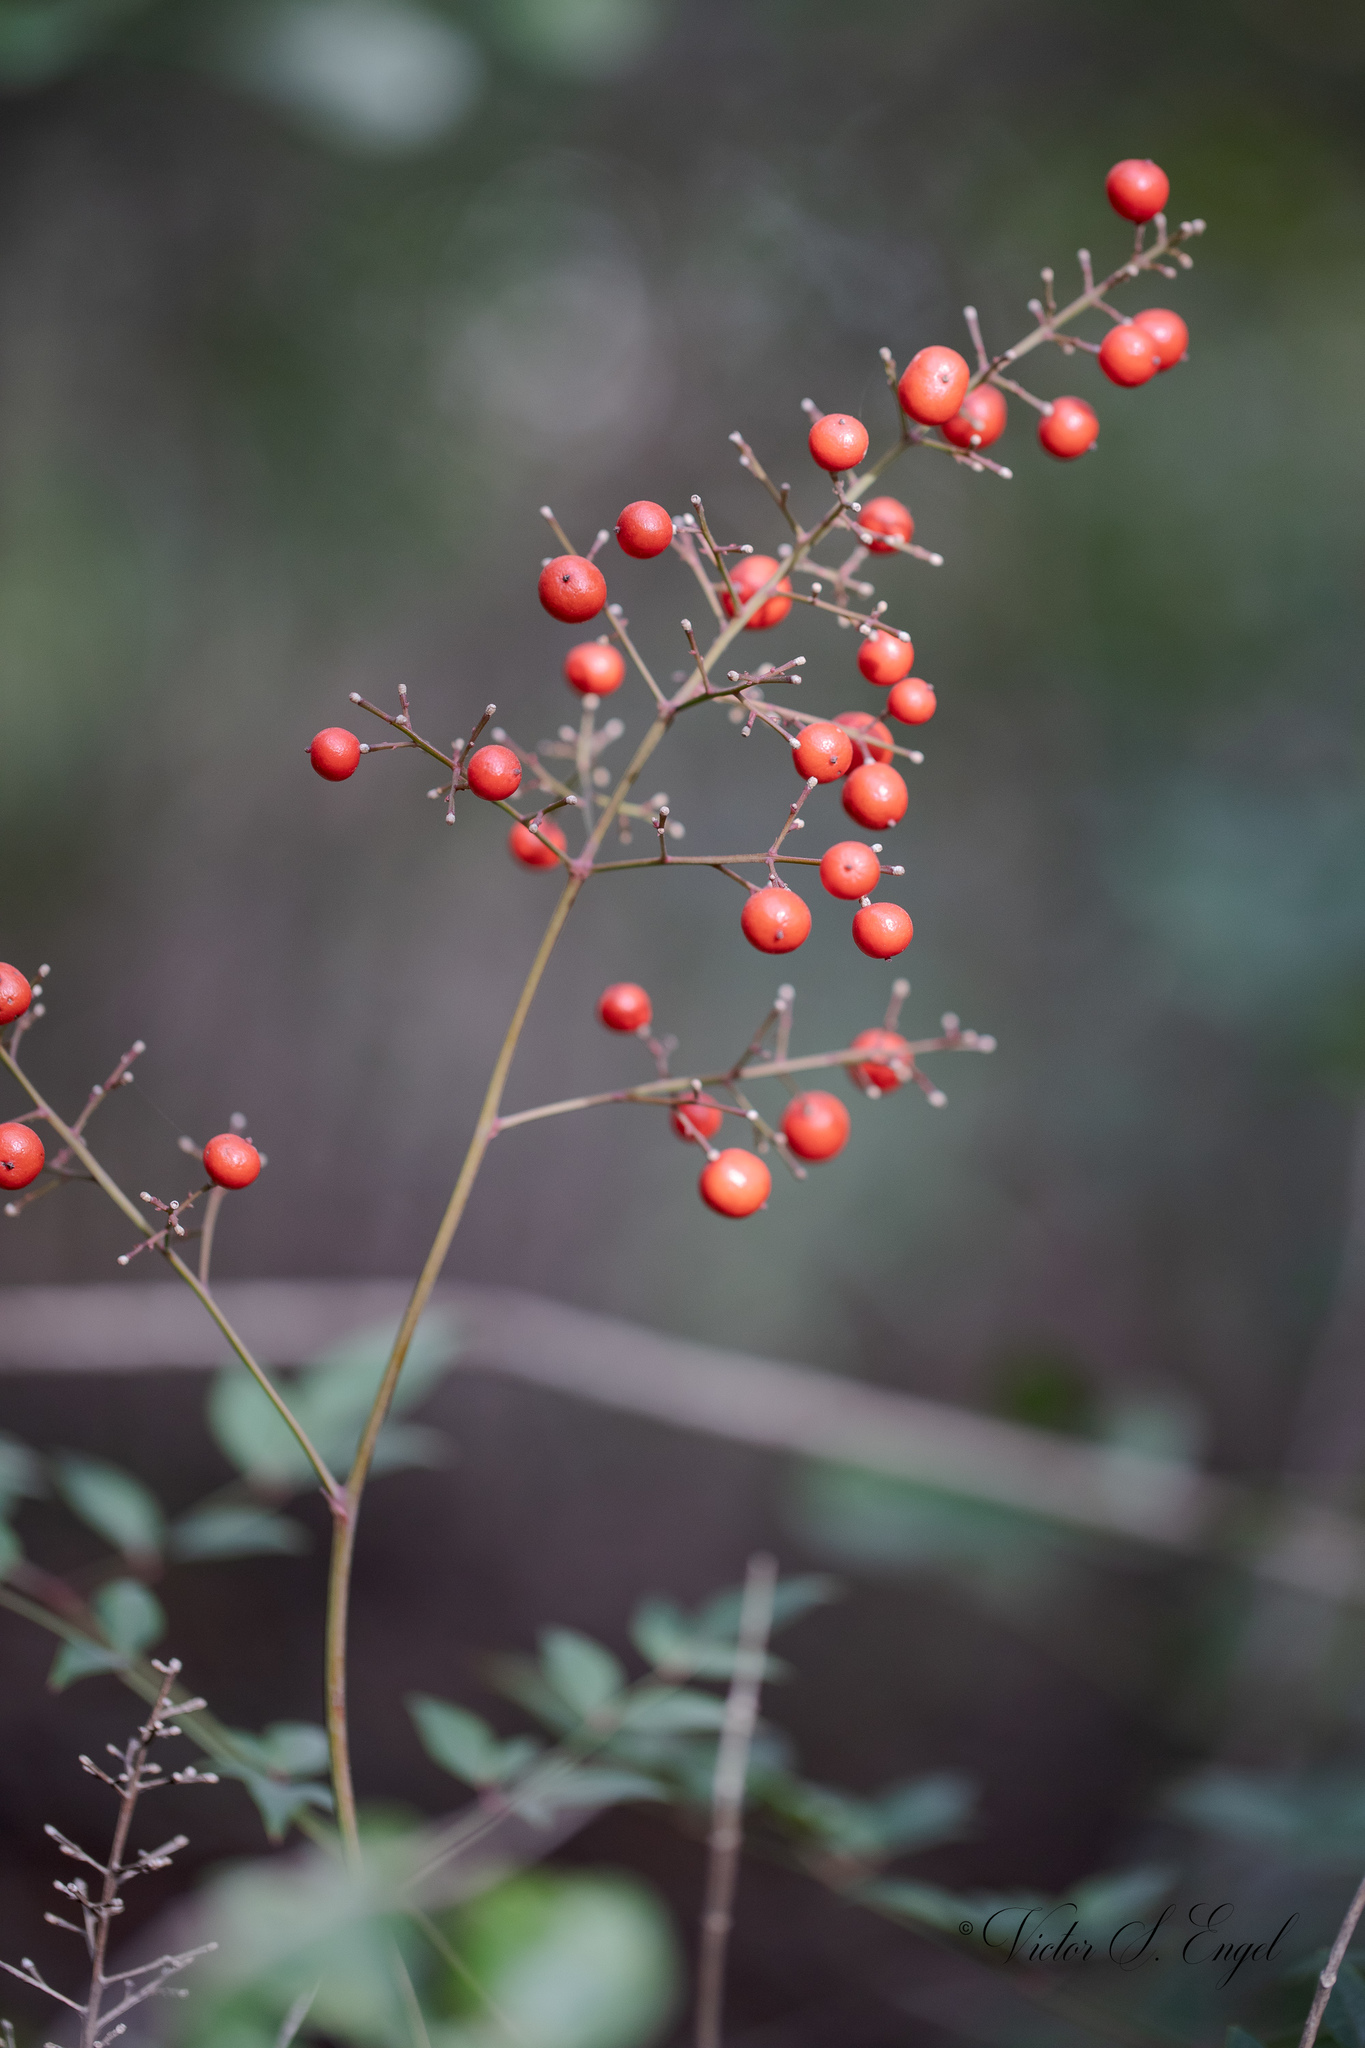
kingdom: Plantae
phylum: Tracheophyta
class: Magnoliopsida
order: Ranunculales
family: Berberidaceae
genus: Nandina
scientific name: Nandina domestica
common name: Sacred bamboo
